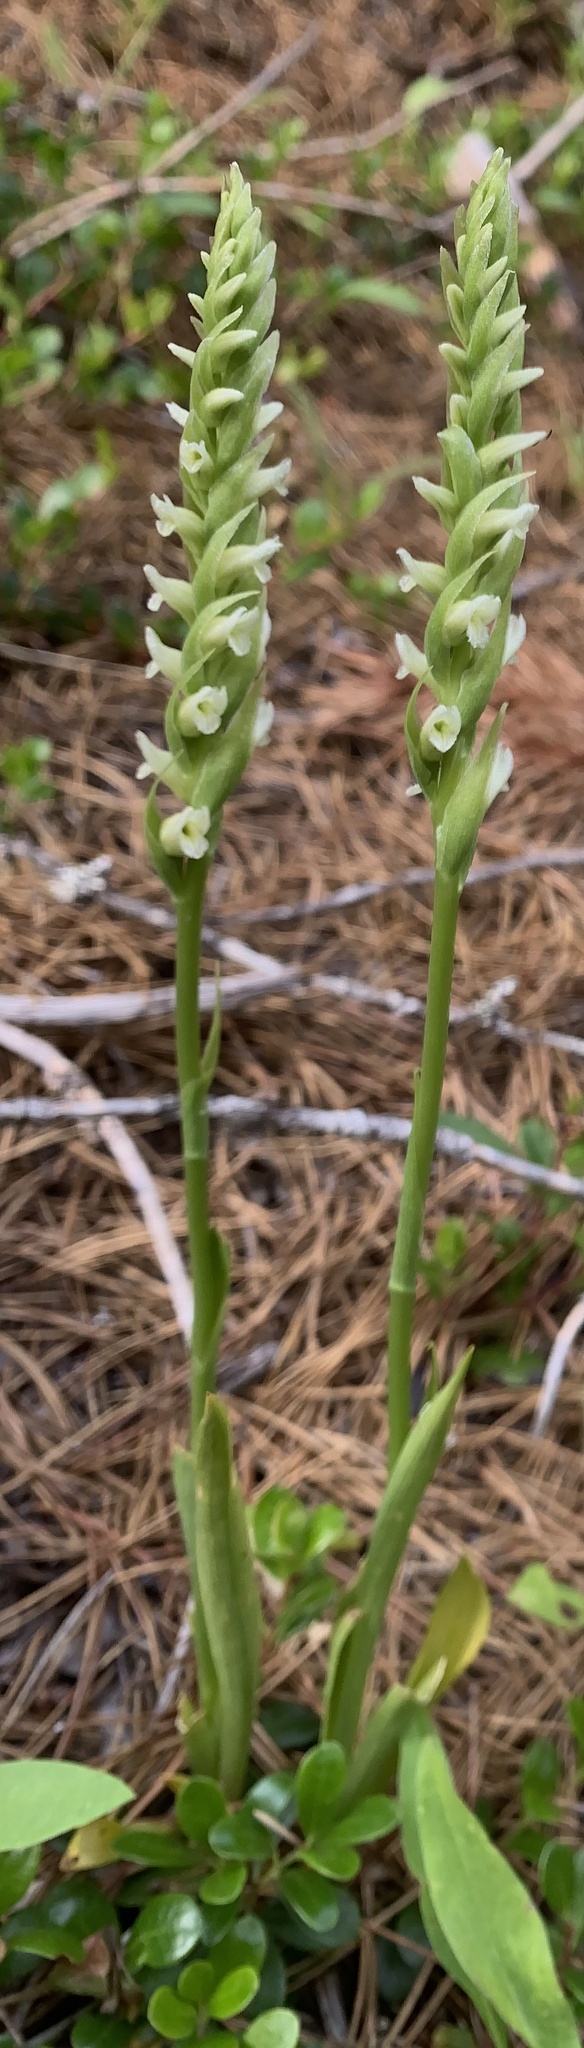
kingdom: Plantae
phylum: Tracheophyta
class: Liliopsida
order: Asparagales
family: Orchidaceae
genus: Spiranthes
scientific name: Spiranthes romanzoffiana
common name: Irish lady's-tresses
